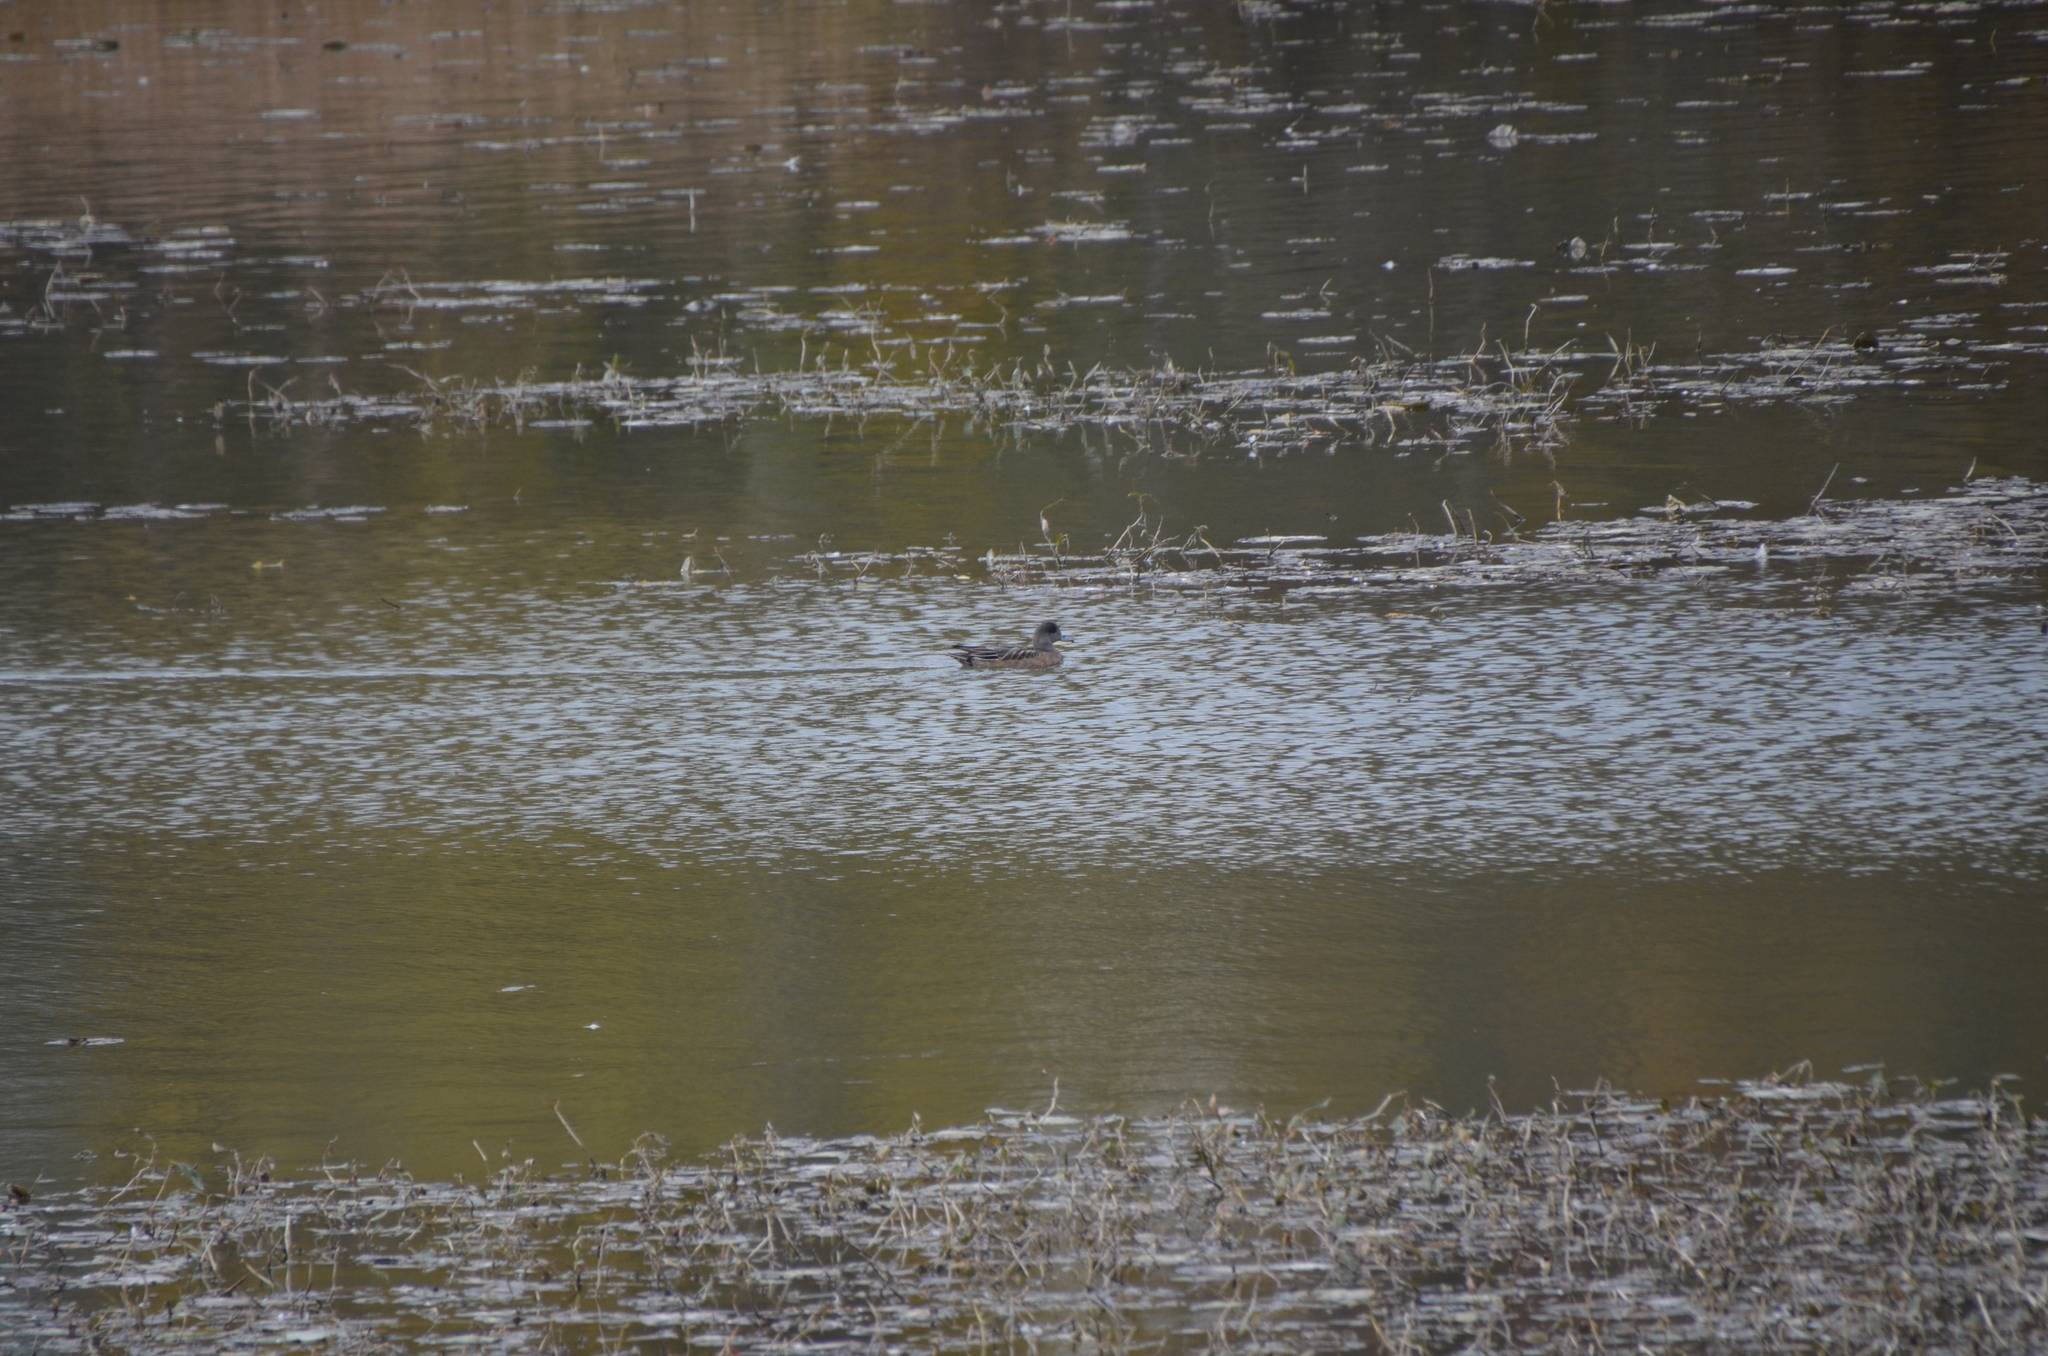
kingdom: Animalia
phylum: Chordata
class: Aves
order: Anseriformes
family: Anatidae
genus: Mareca
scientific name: Mareca americana
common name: American wigeon
